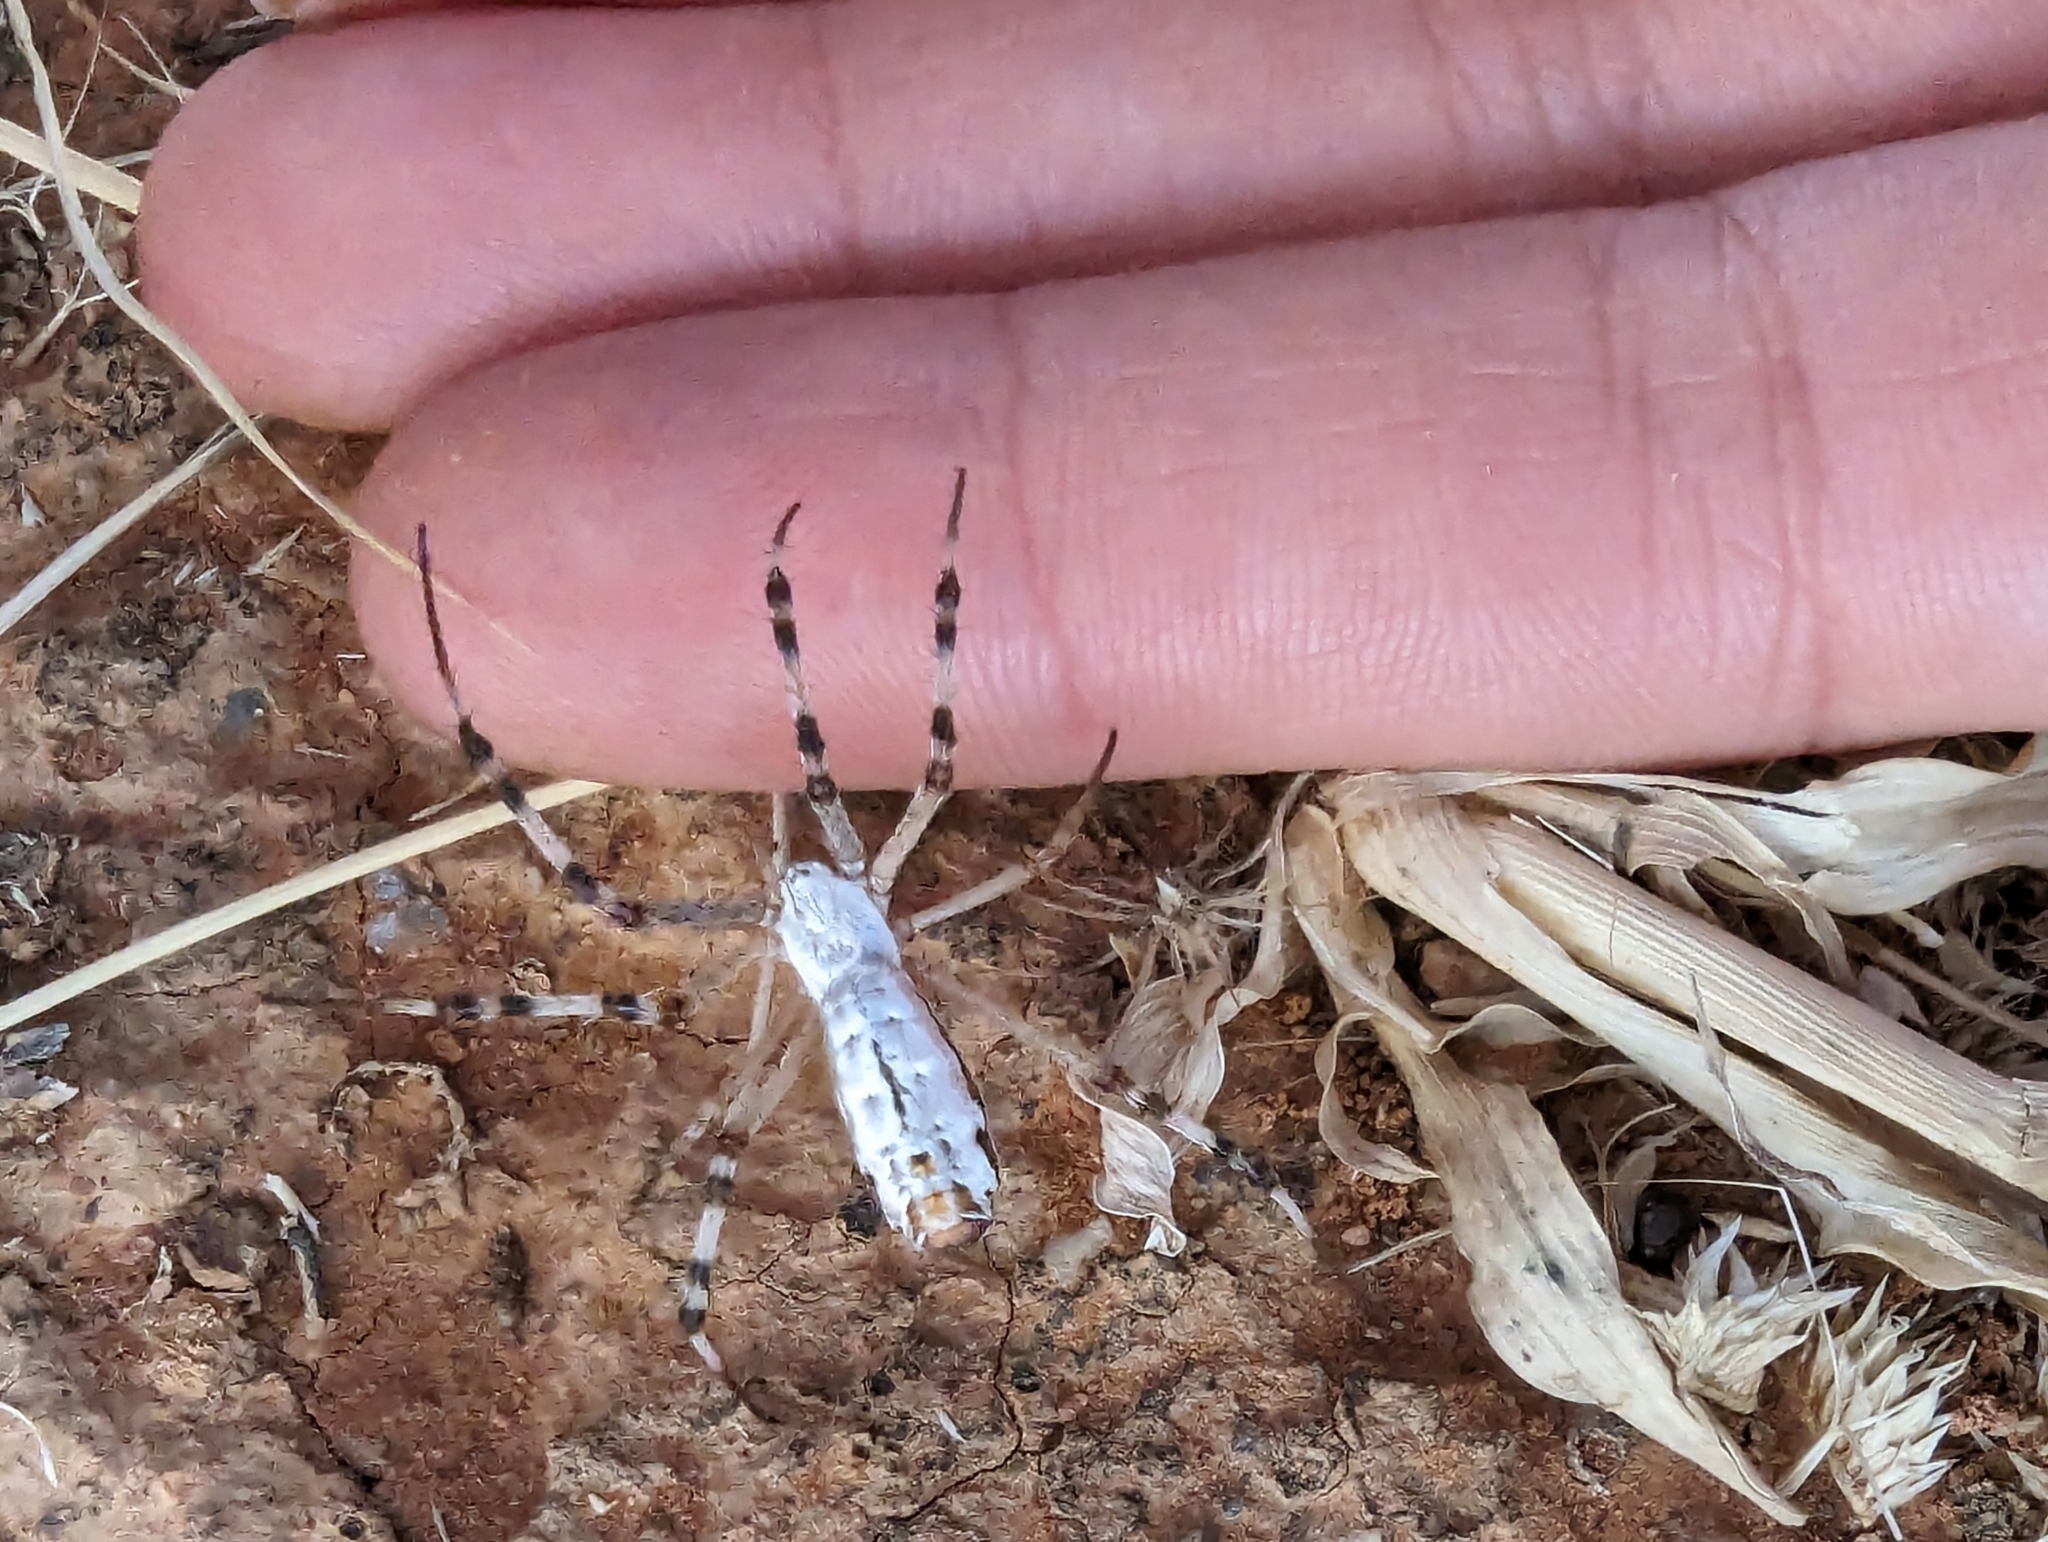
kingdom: Animalia
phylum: Arthropoda
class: Arachnida
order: Araneae
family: Araneidae
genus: Argiope
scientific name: Argiope protensa
